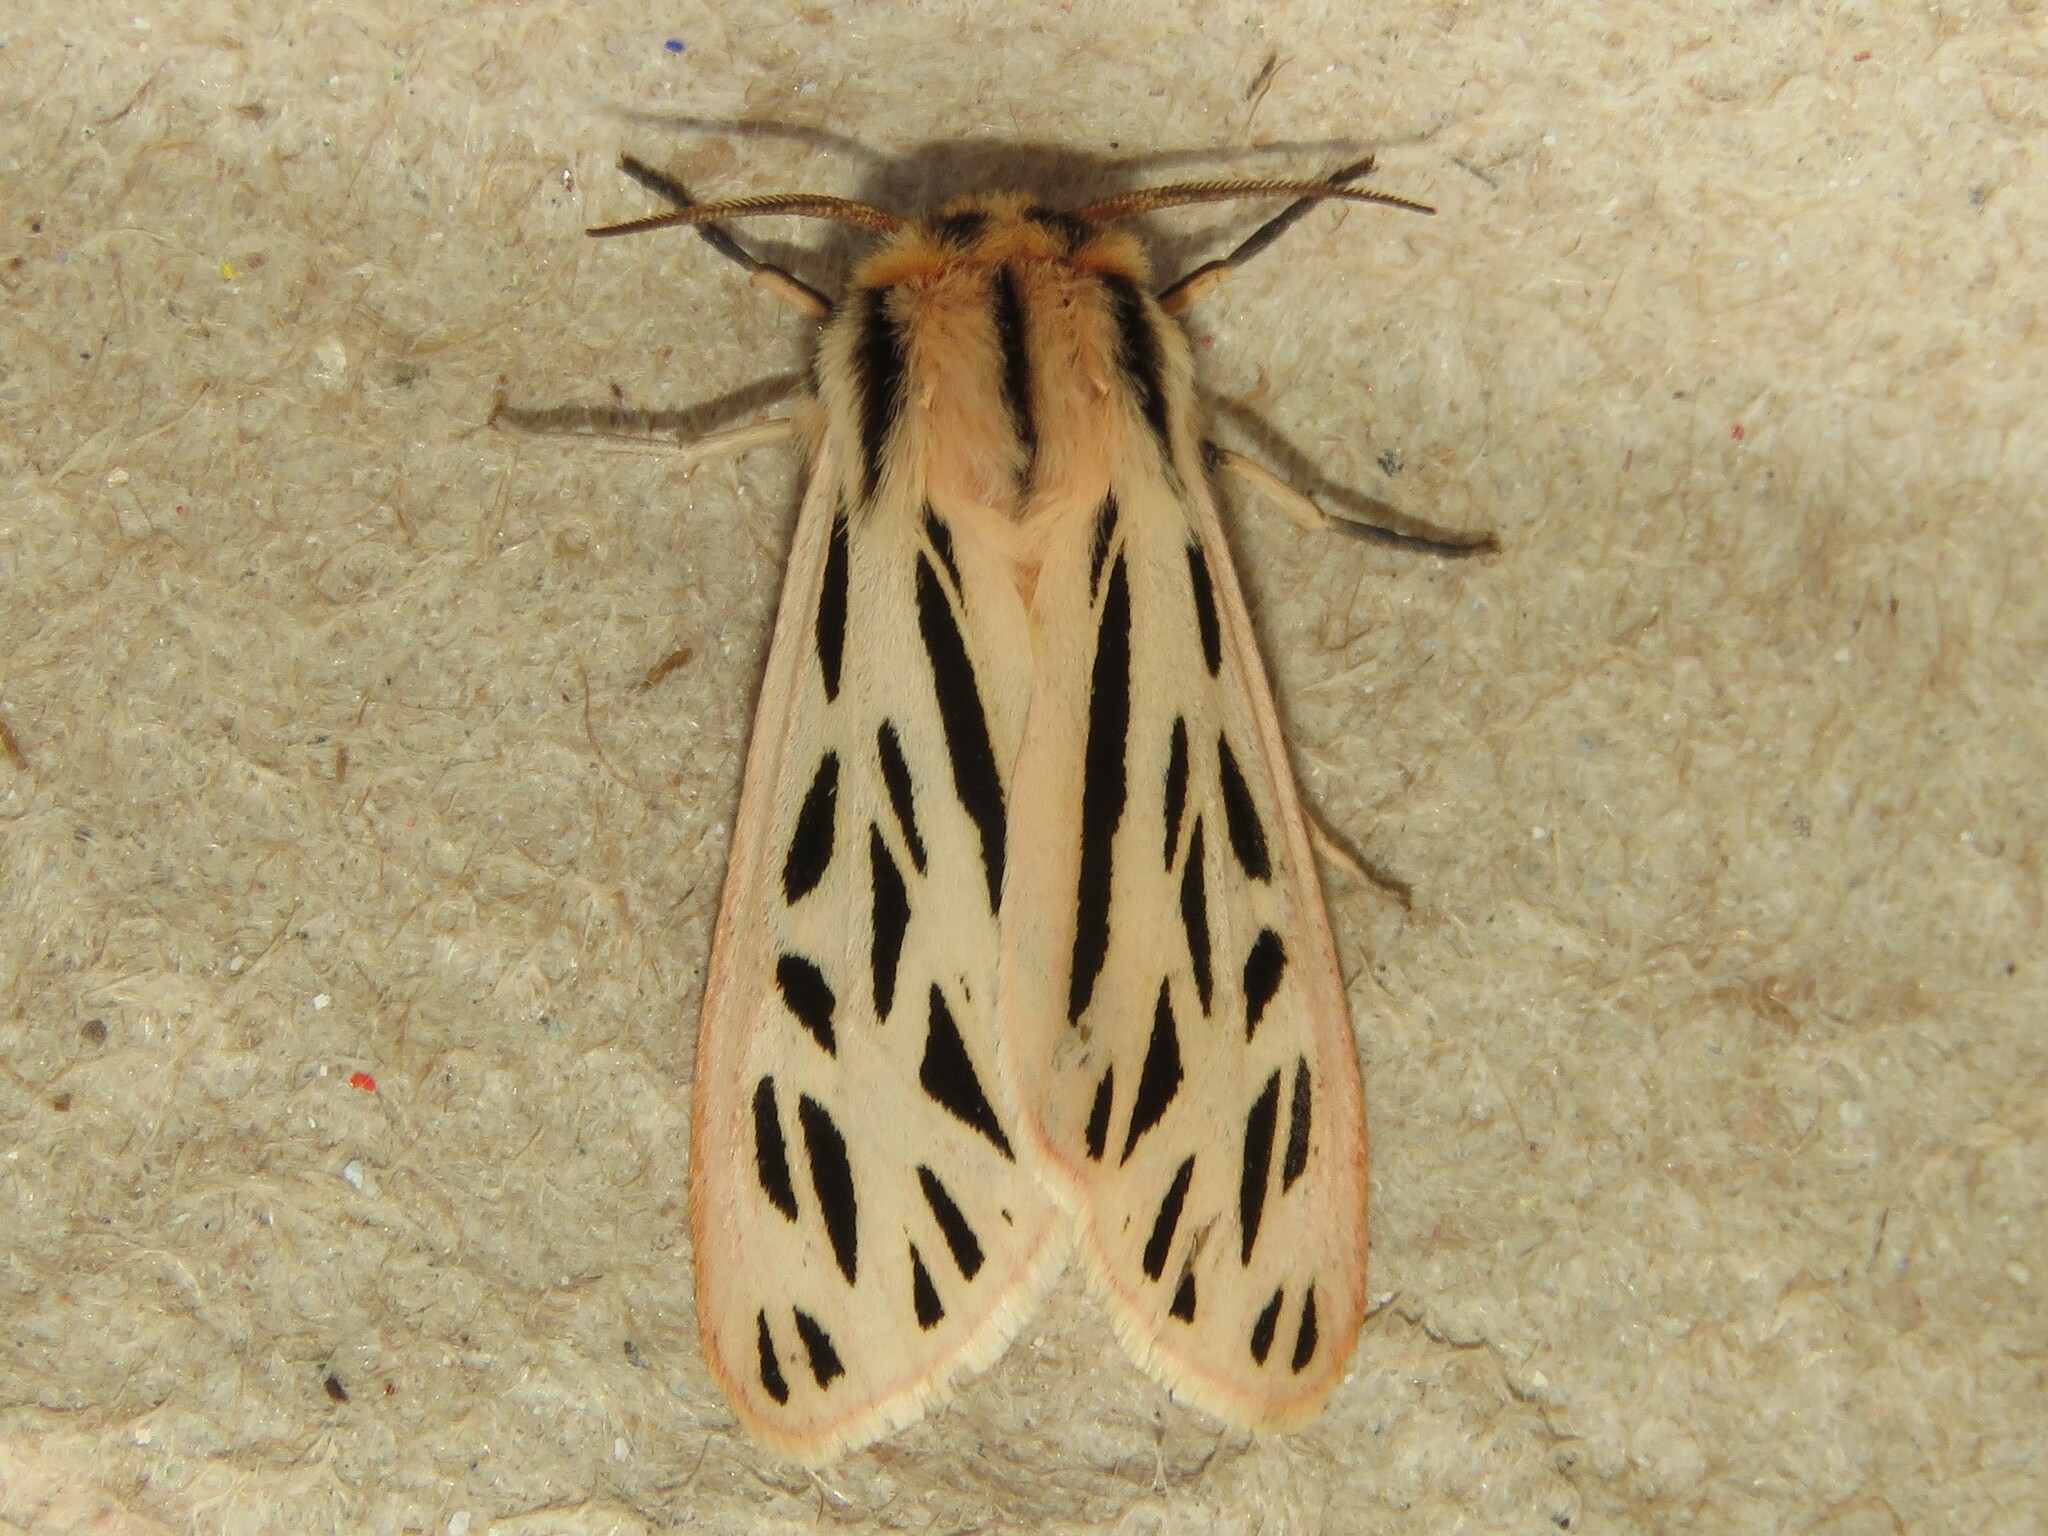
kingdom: Animalia
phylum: Arthropoda
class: Insecta
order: Lepidoptera
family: Erebidae
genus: Apantesis
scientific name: Apantesis arge
